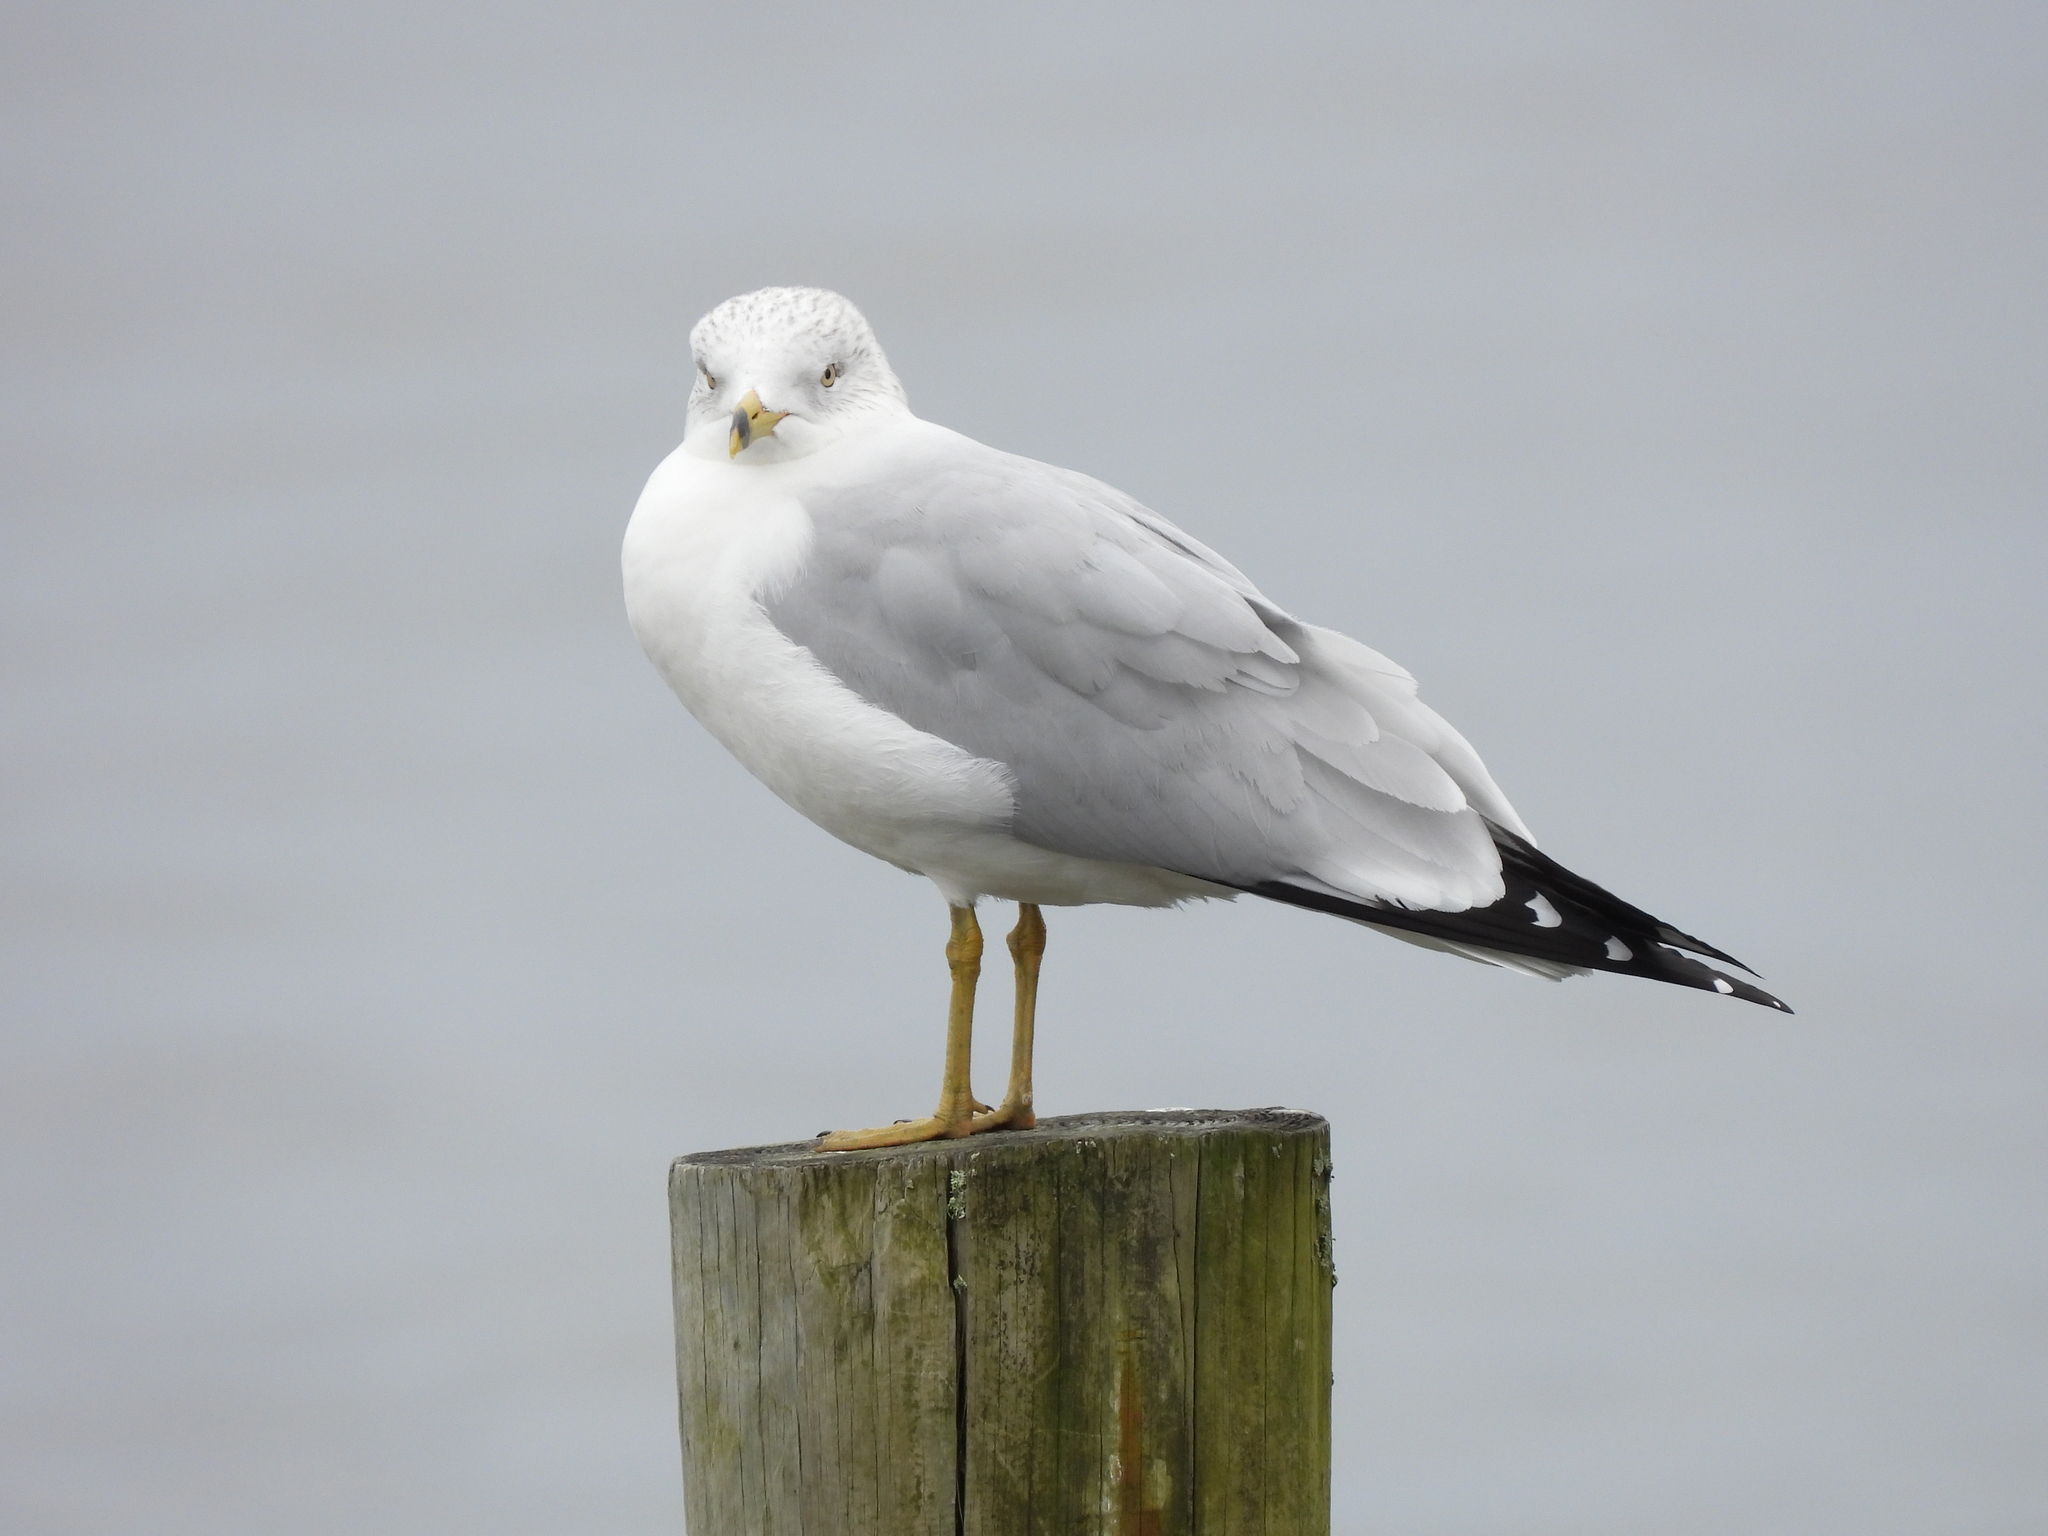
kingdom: Animalia
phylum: Chordata
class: Aves
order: Charadriiformes
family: Laridae
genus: Larus
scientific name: Larus delawarensis
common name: Ring-billed gull
